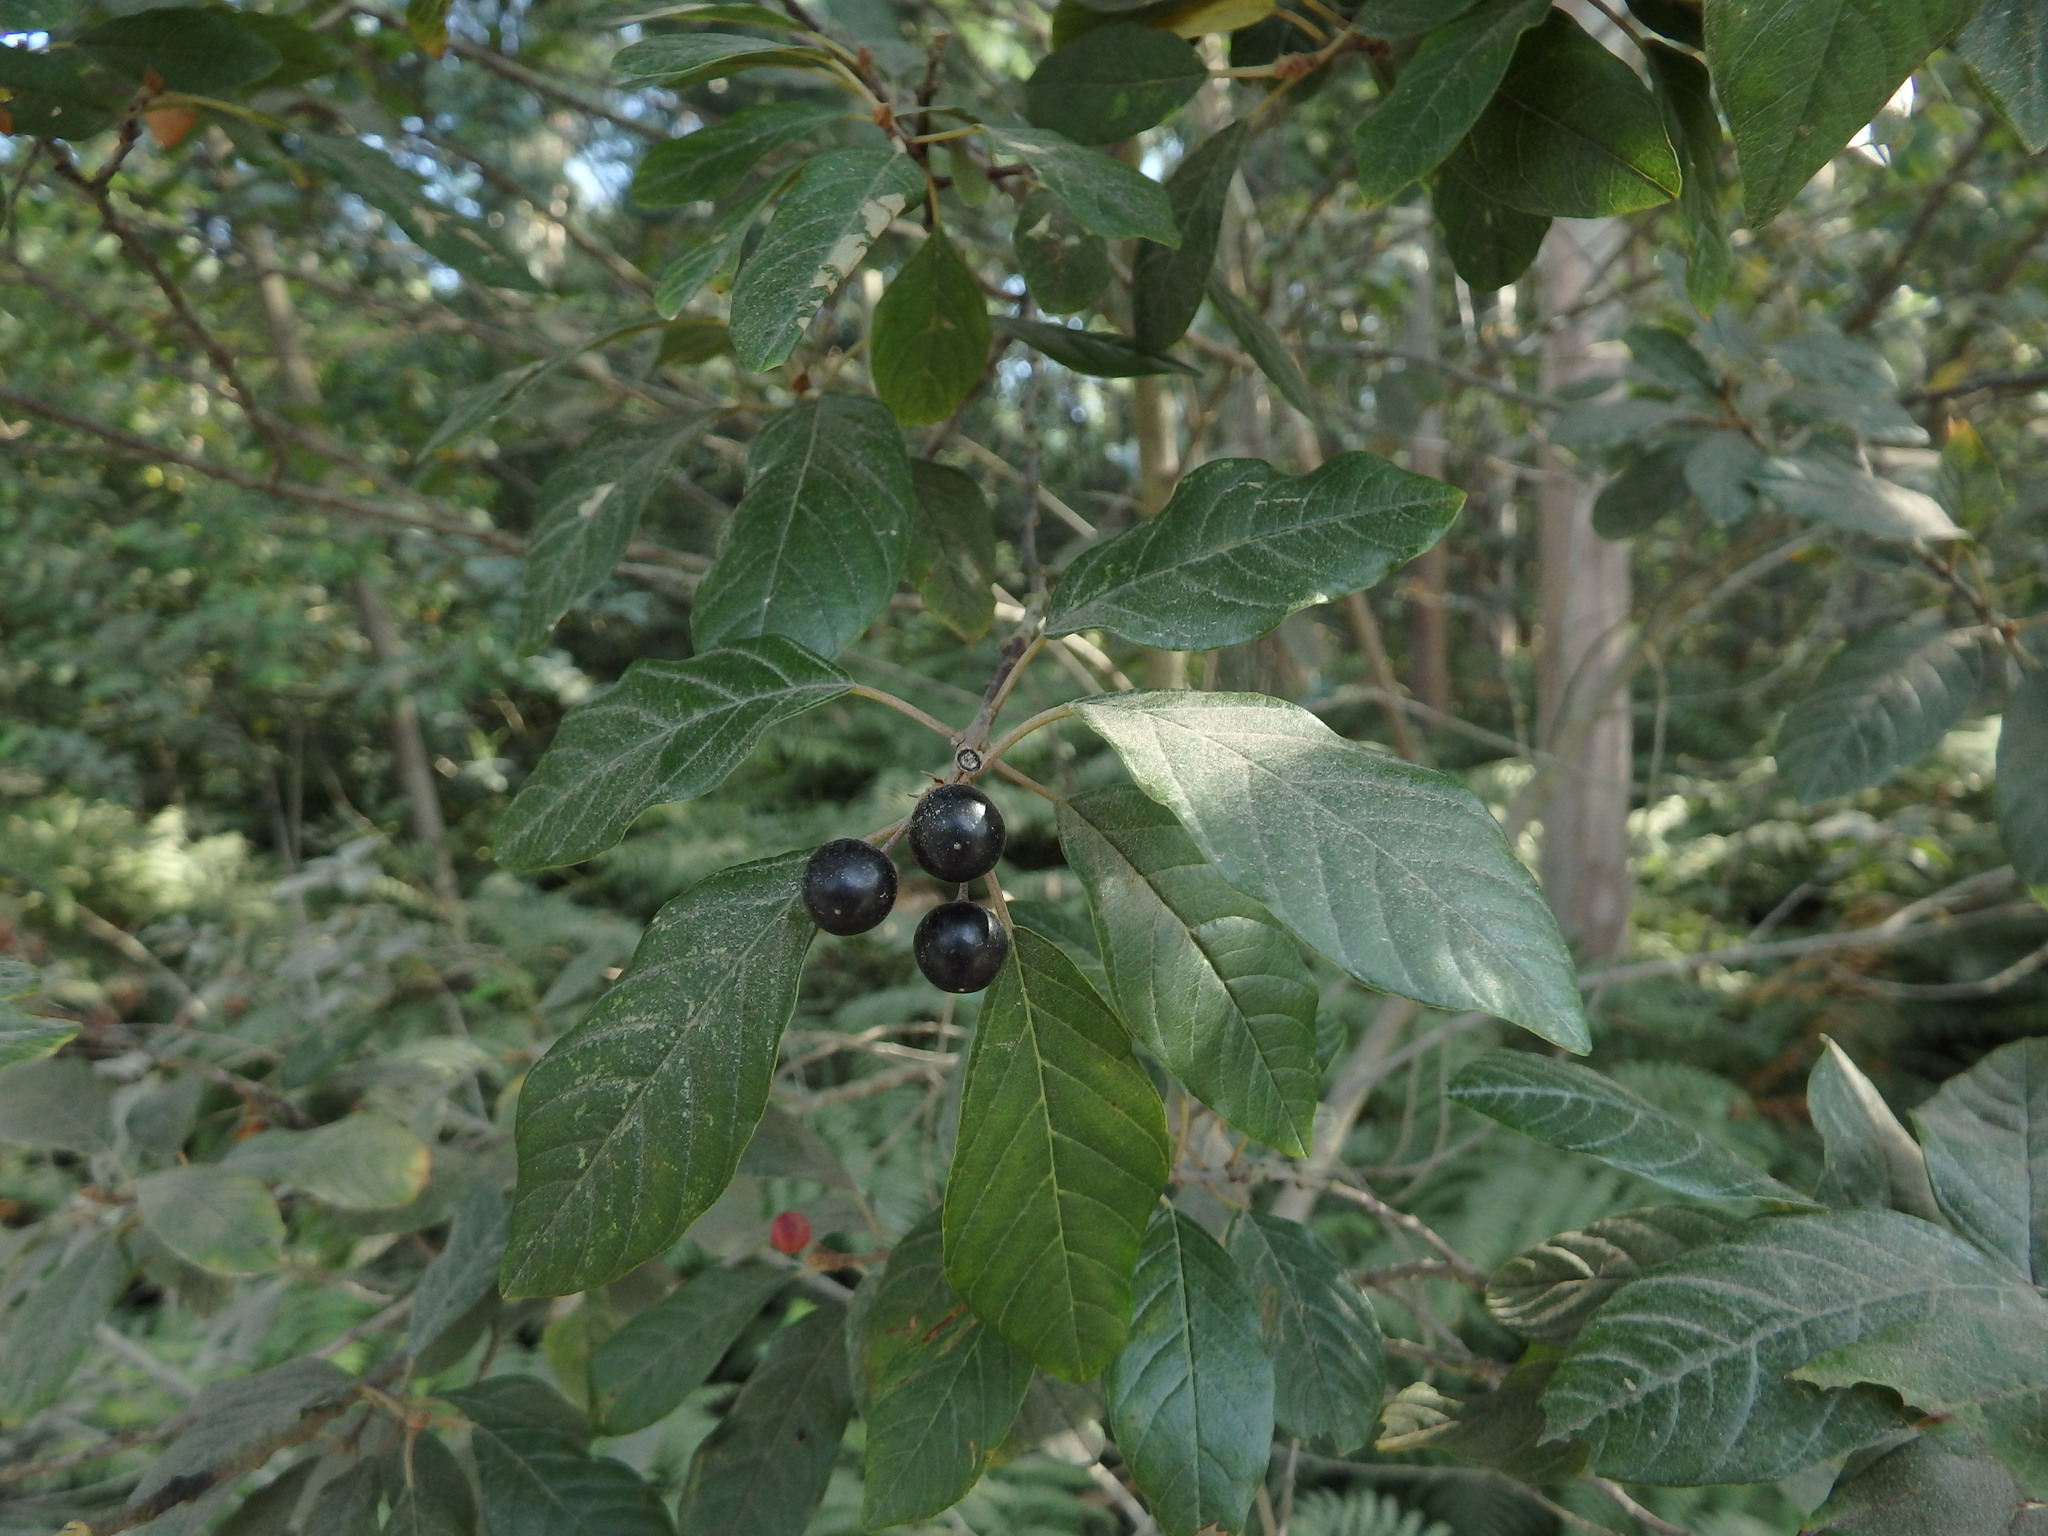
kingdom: Plantae
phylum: Tracheophyta
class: Magnoliopsida
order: Rosales
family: Rhamnaceae
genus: Frangula
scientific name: Frangula alnus
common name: Alder buckthorn
